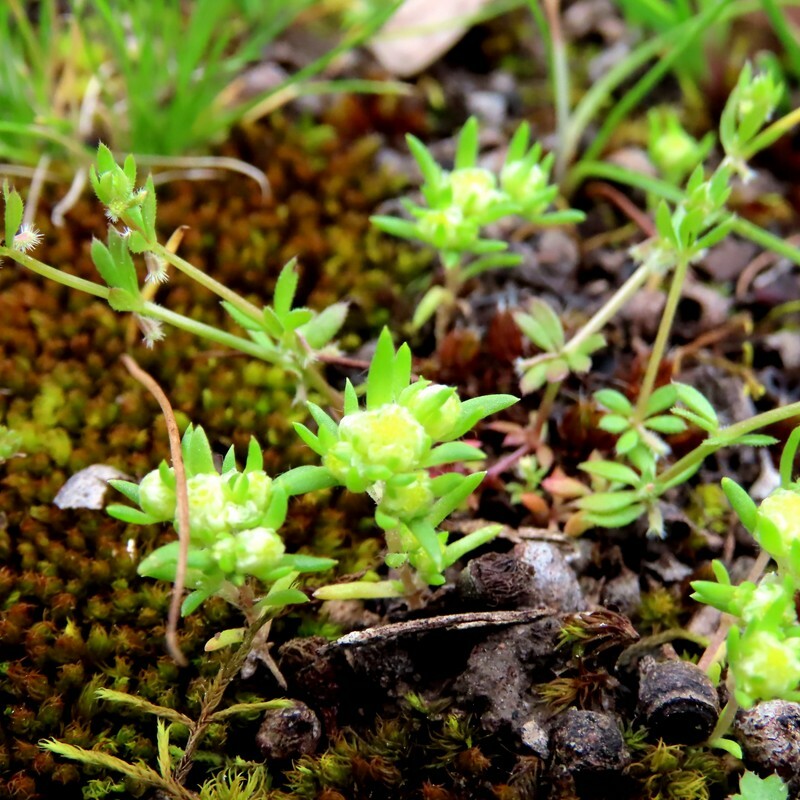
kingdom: Plantae
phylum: Tracheophyta
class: Magnoliopsida
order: Asterales
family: Asteraceae
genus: Siloxerus
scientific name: Siloxerus multiflorus
